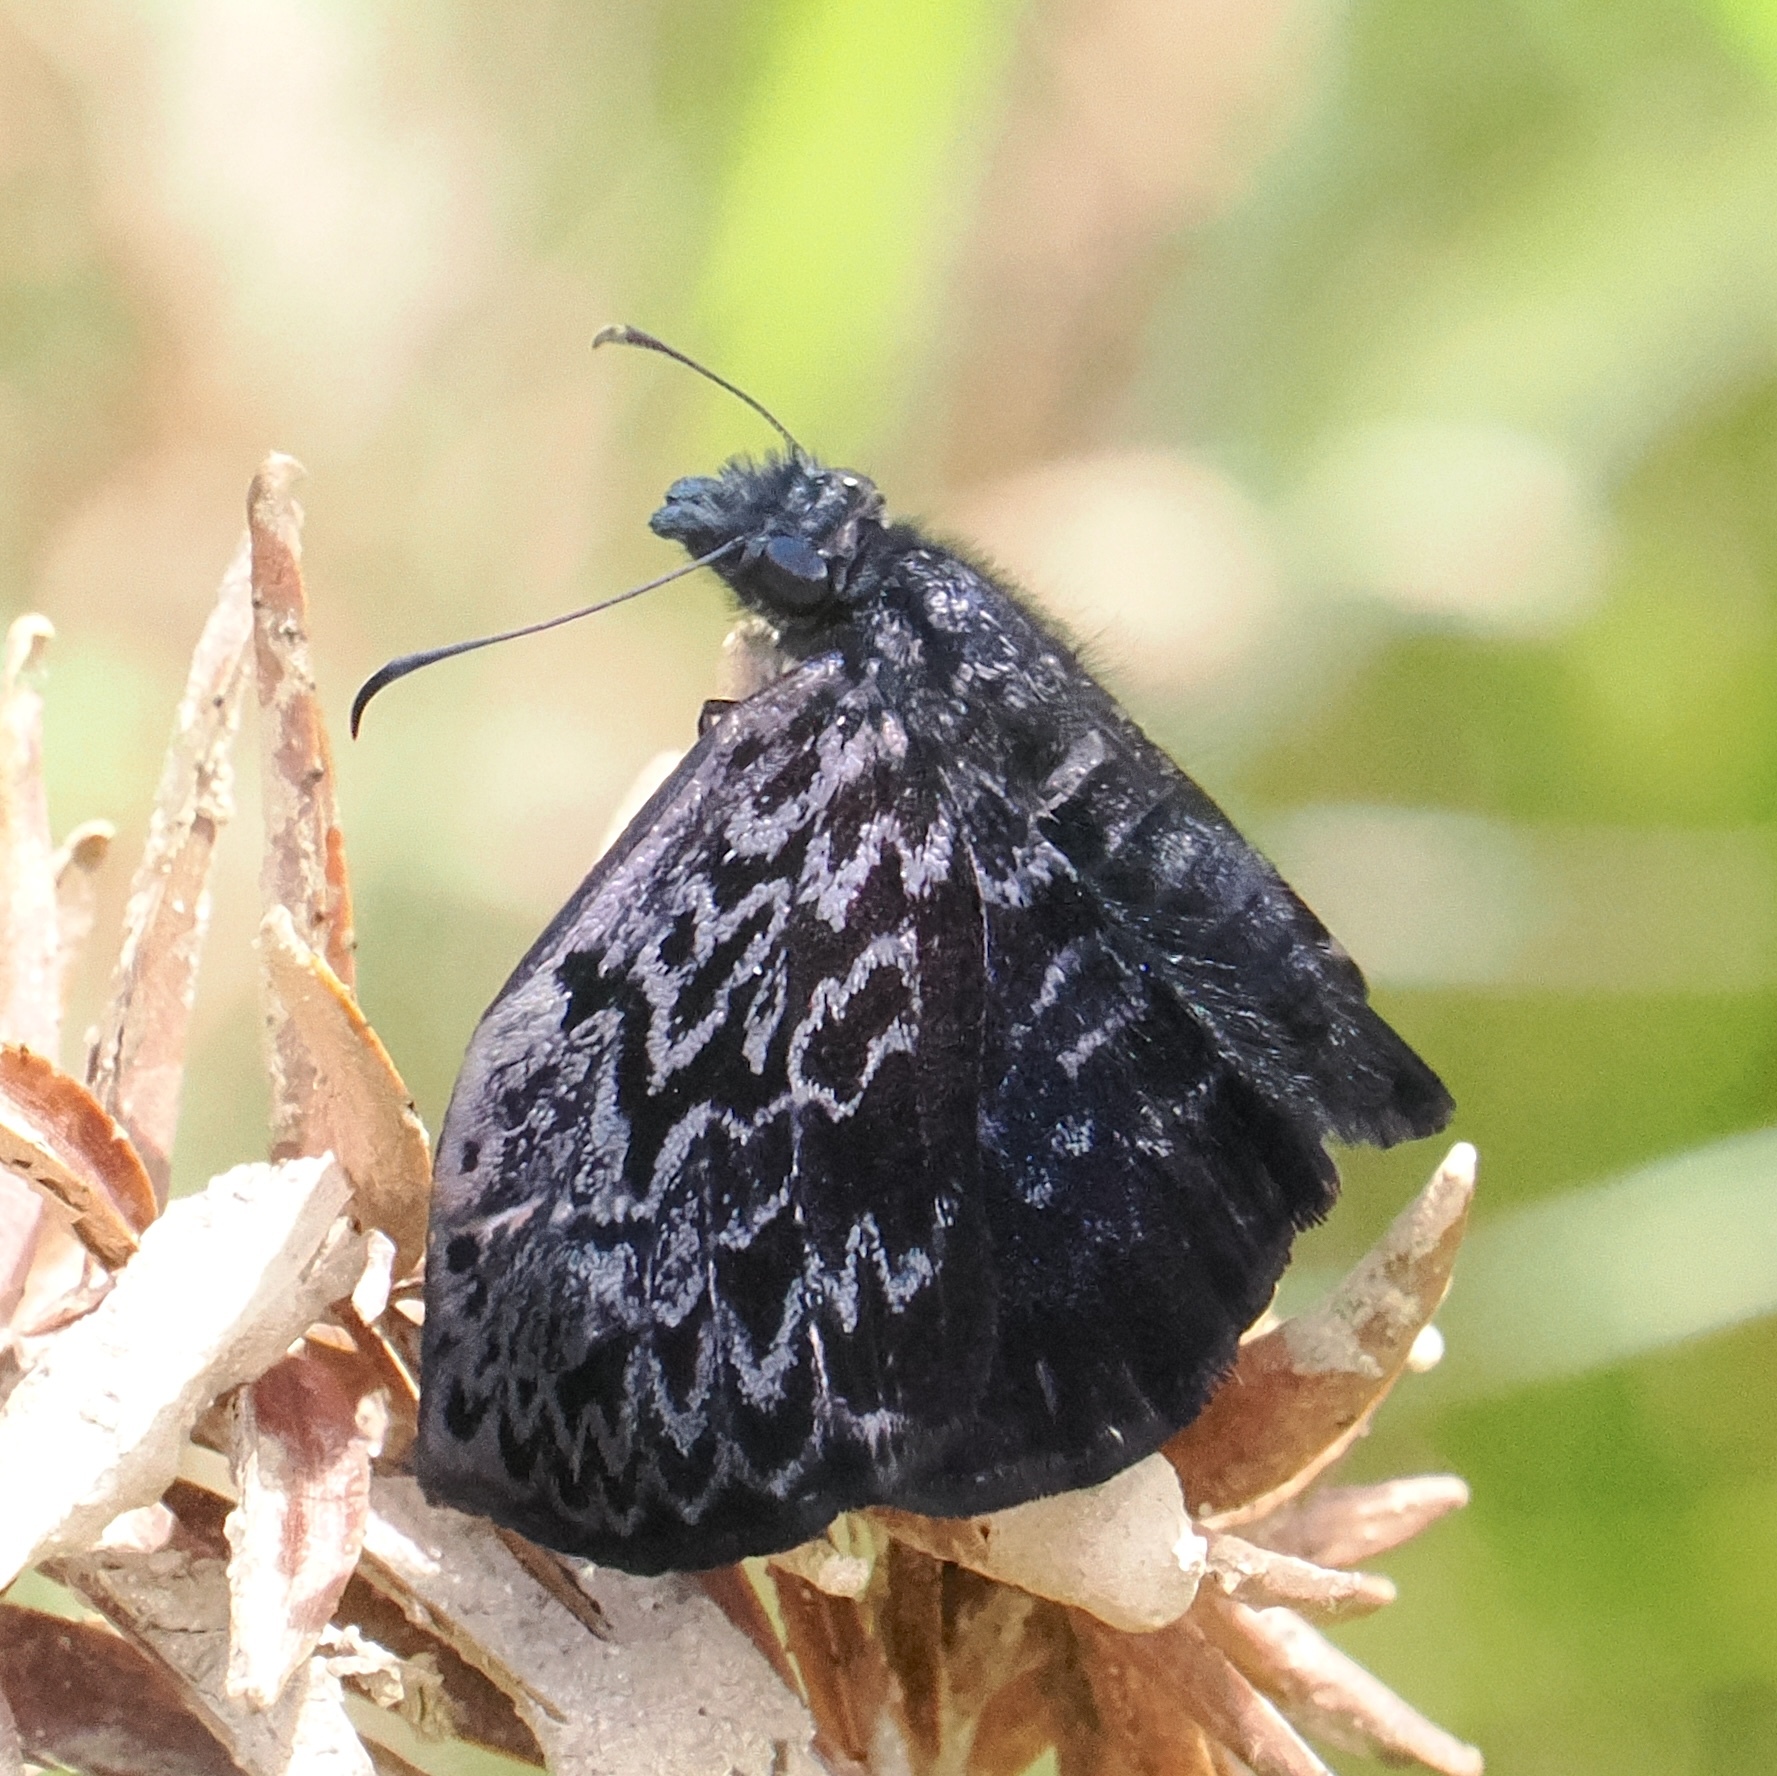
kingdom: Animalia
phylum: Arthropoda
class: Insecta
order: Lepidoptera
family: Hesperiidae
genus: Cycloglypha
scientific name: Cycloglypha thrasibulus
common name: Widespread bent-skipper
